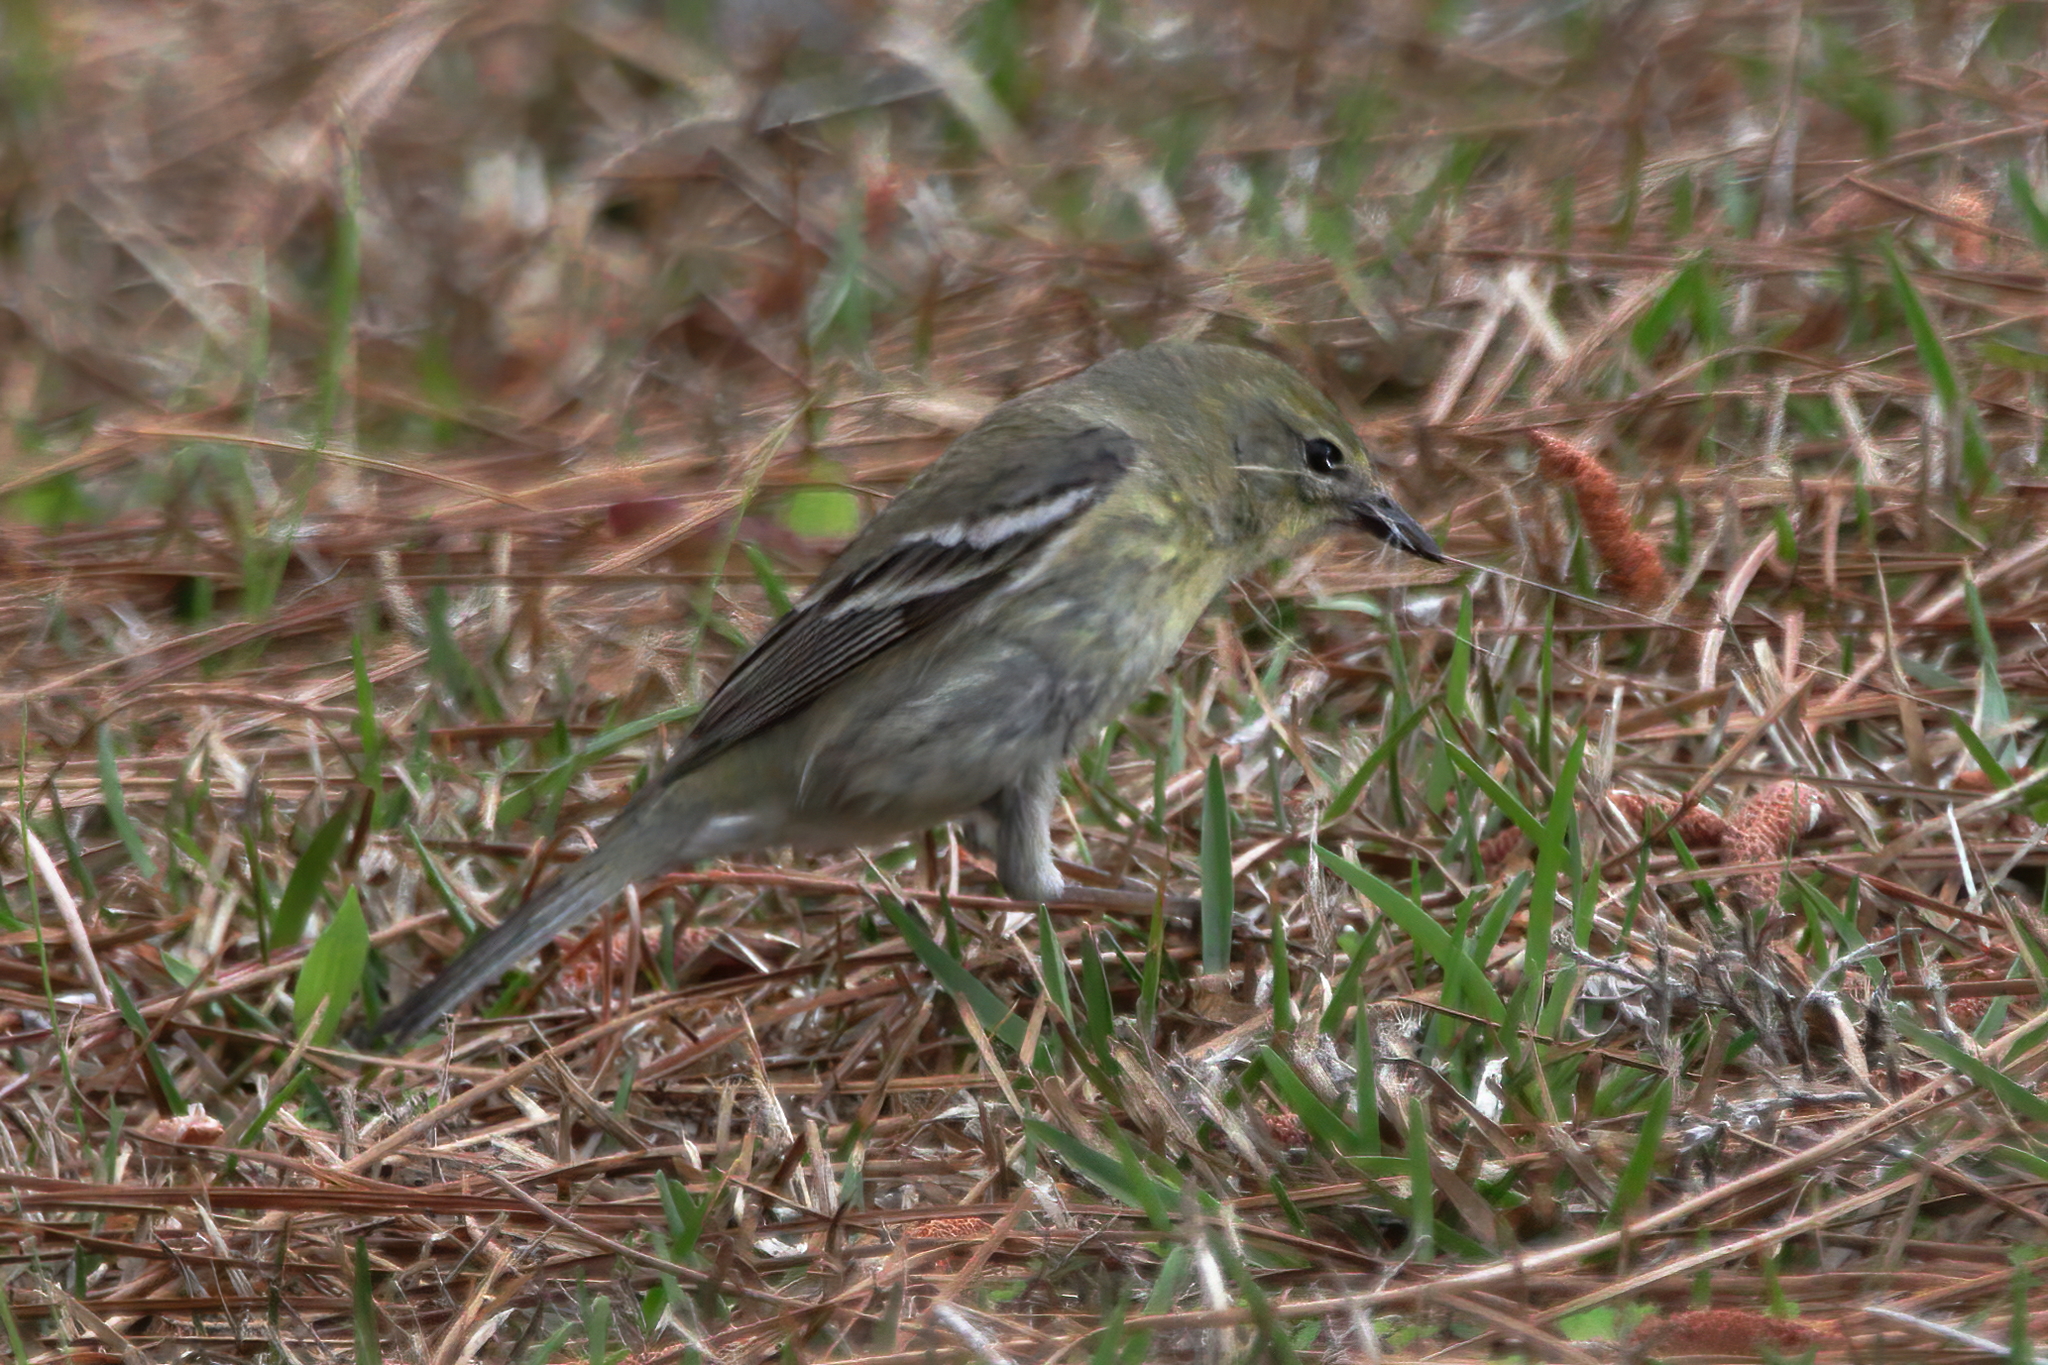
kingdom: Animalia
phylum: Chordata
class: Aves
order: Passeriformes
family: Parulidae
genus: Setophaga
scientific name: Setophaga pinus
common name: Pine warbler
